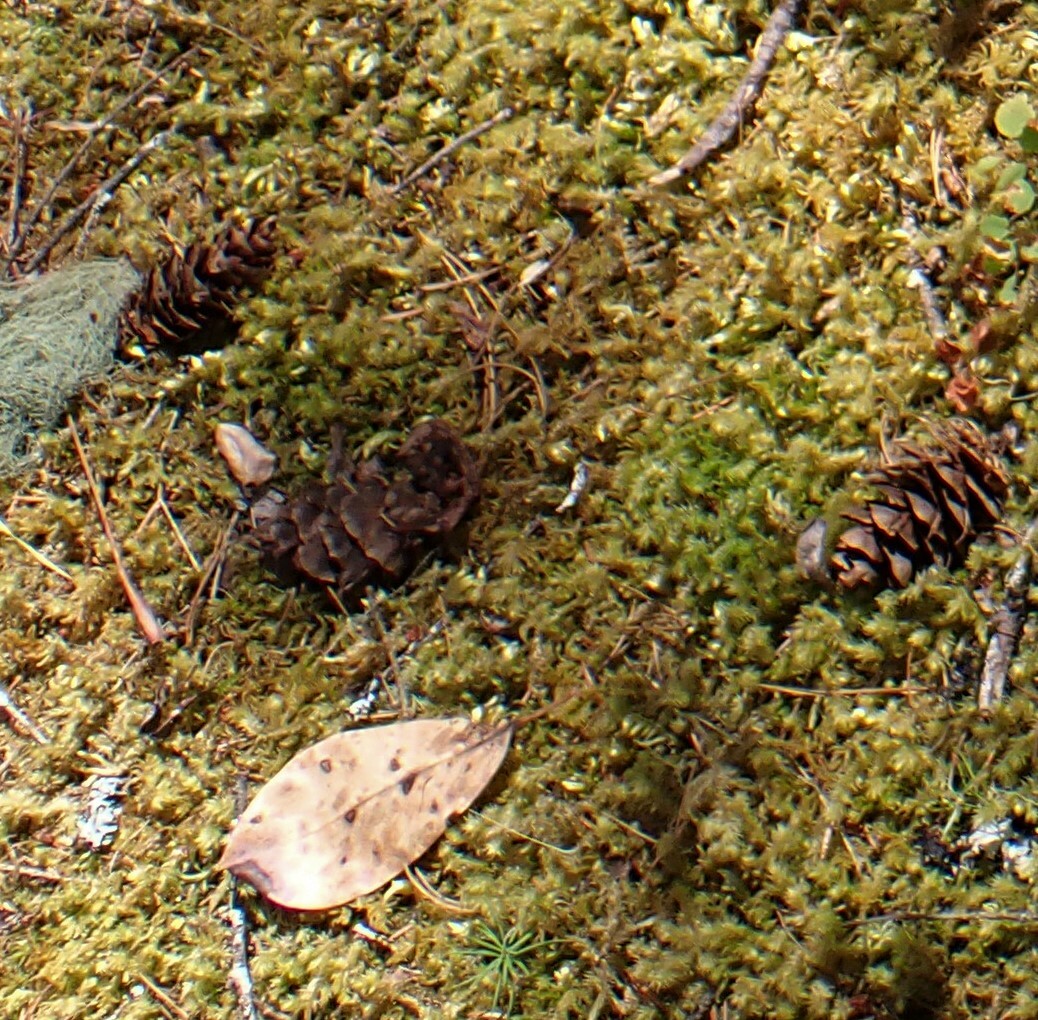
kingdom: Plantae
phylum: Tracheophyta
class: Pinopsida
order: Pinales
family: Pinaceae
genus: Pseudotsuga
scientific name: Pseudotsuga menziesii
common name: Douglas fir
